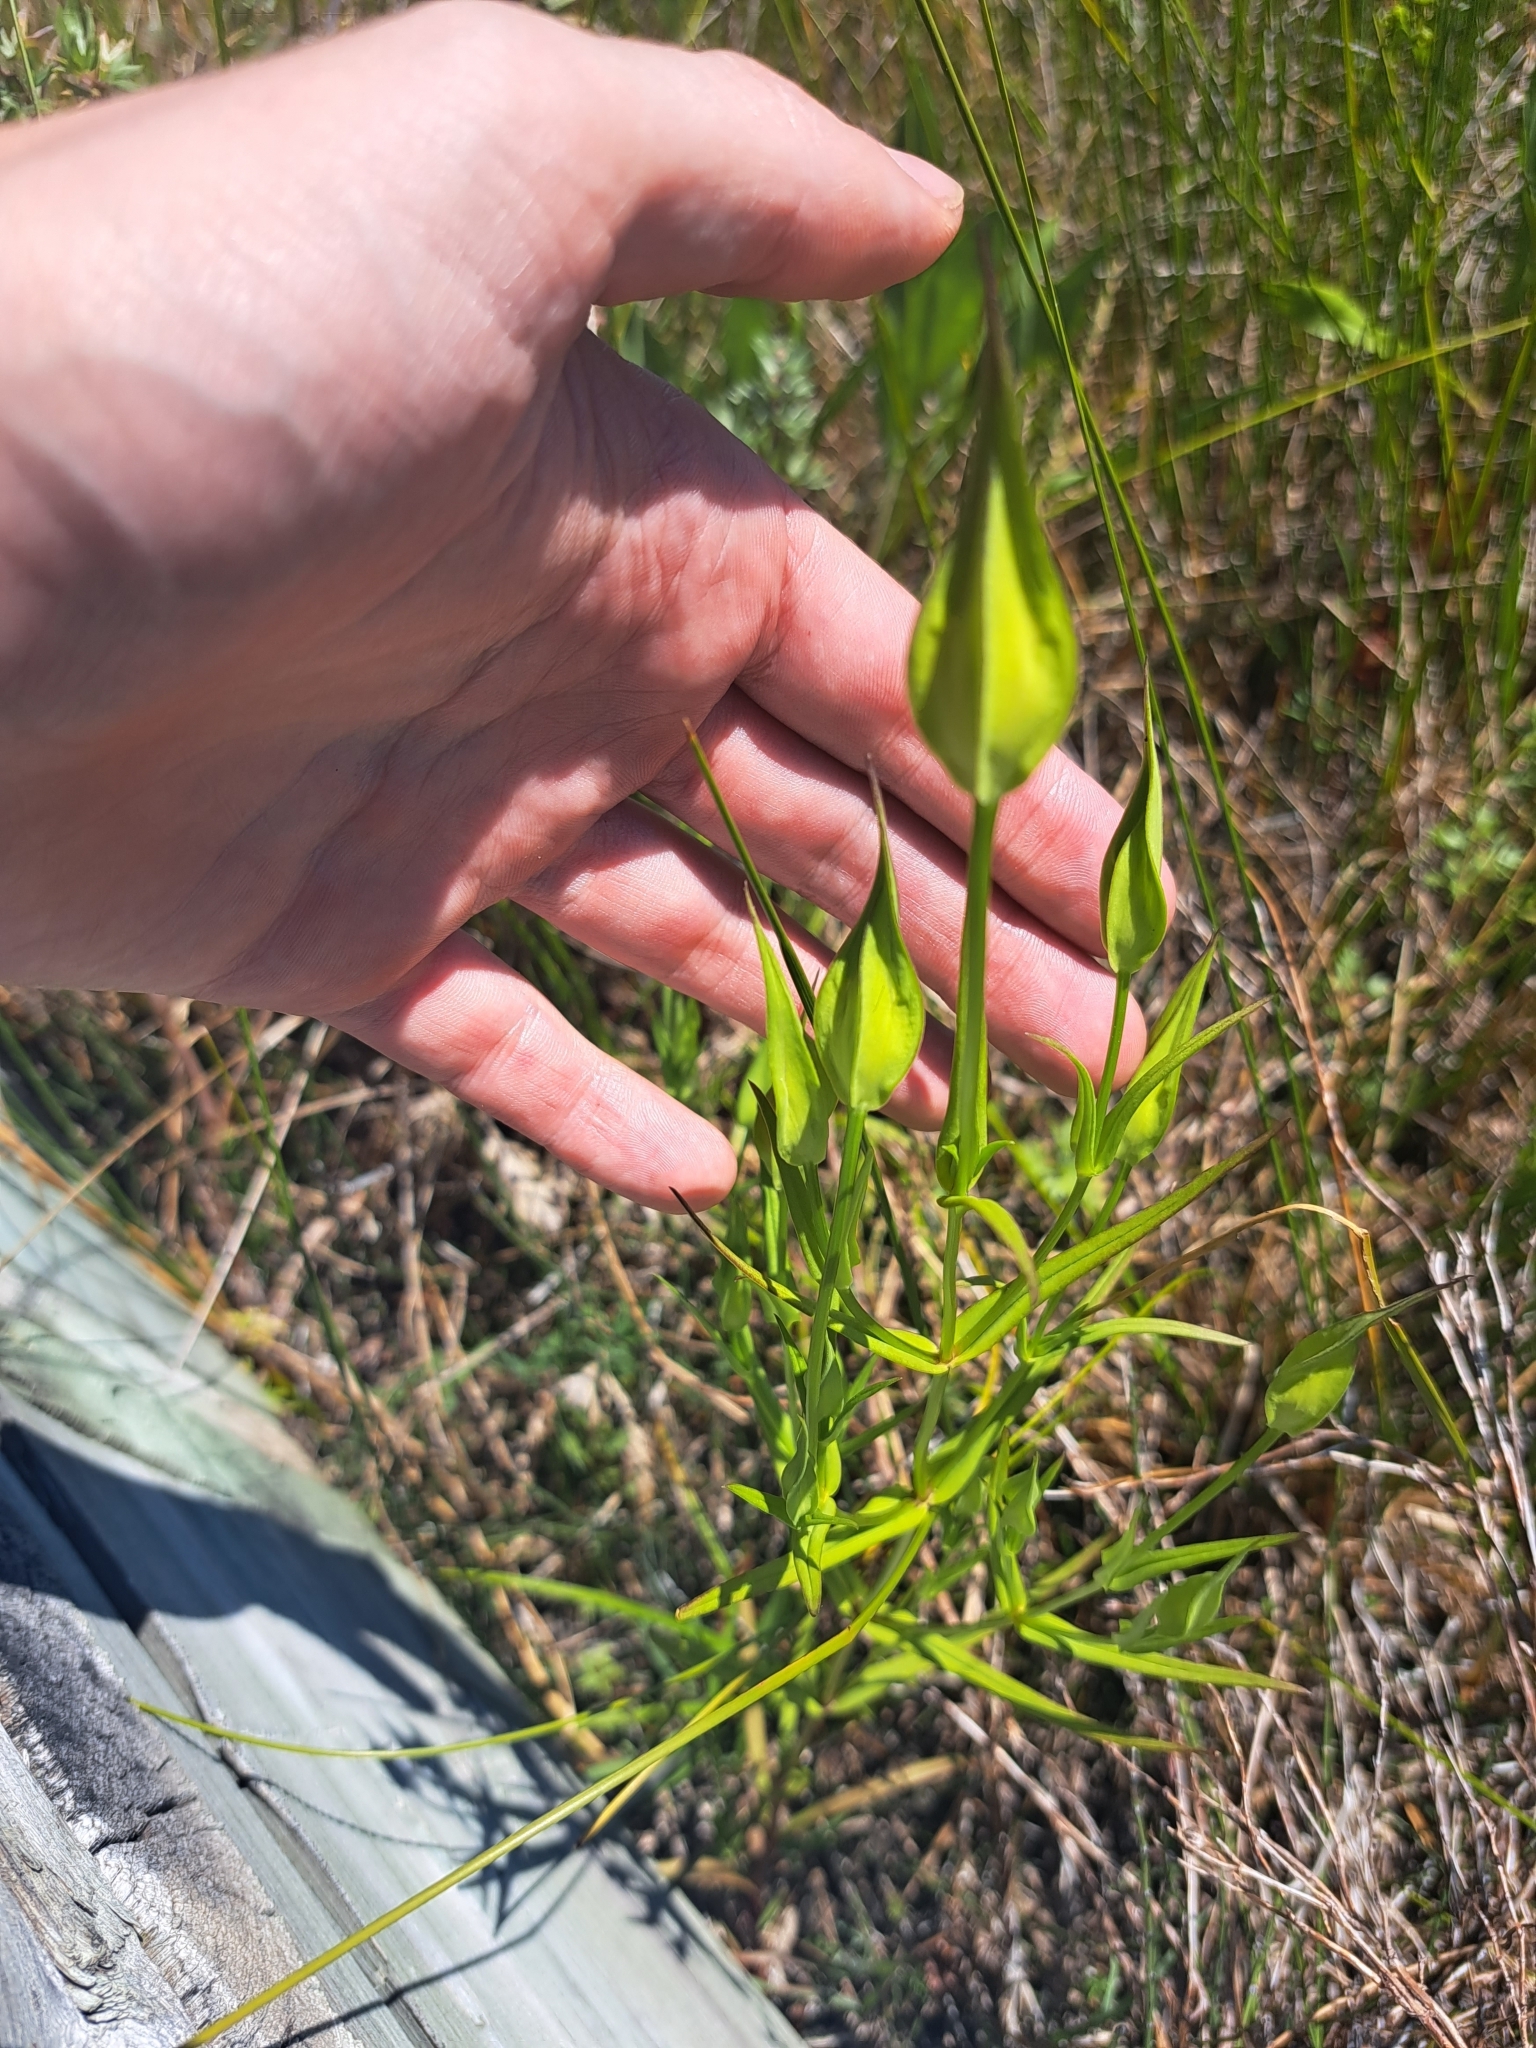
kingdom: Plantae
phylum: Tracheophyta
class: Magnoliopsida
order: Gentianales
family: Gentianaceae
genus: Gentianopsis
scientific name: Gentianopsis virgata
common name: Lesser fringed-gentian
